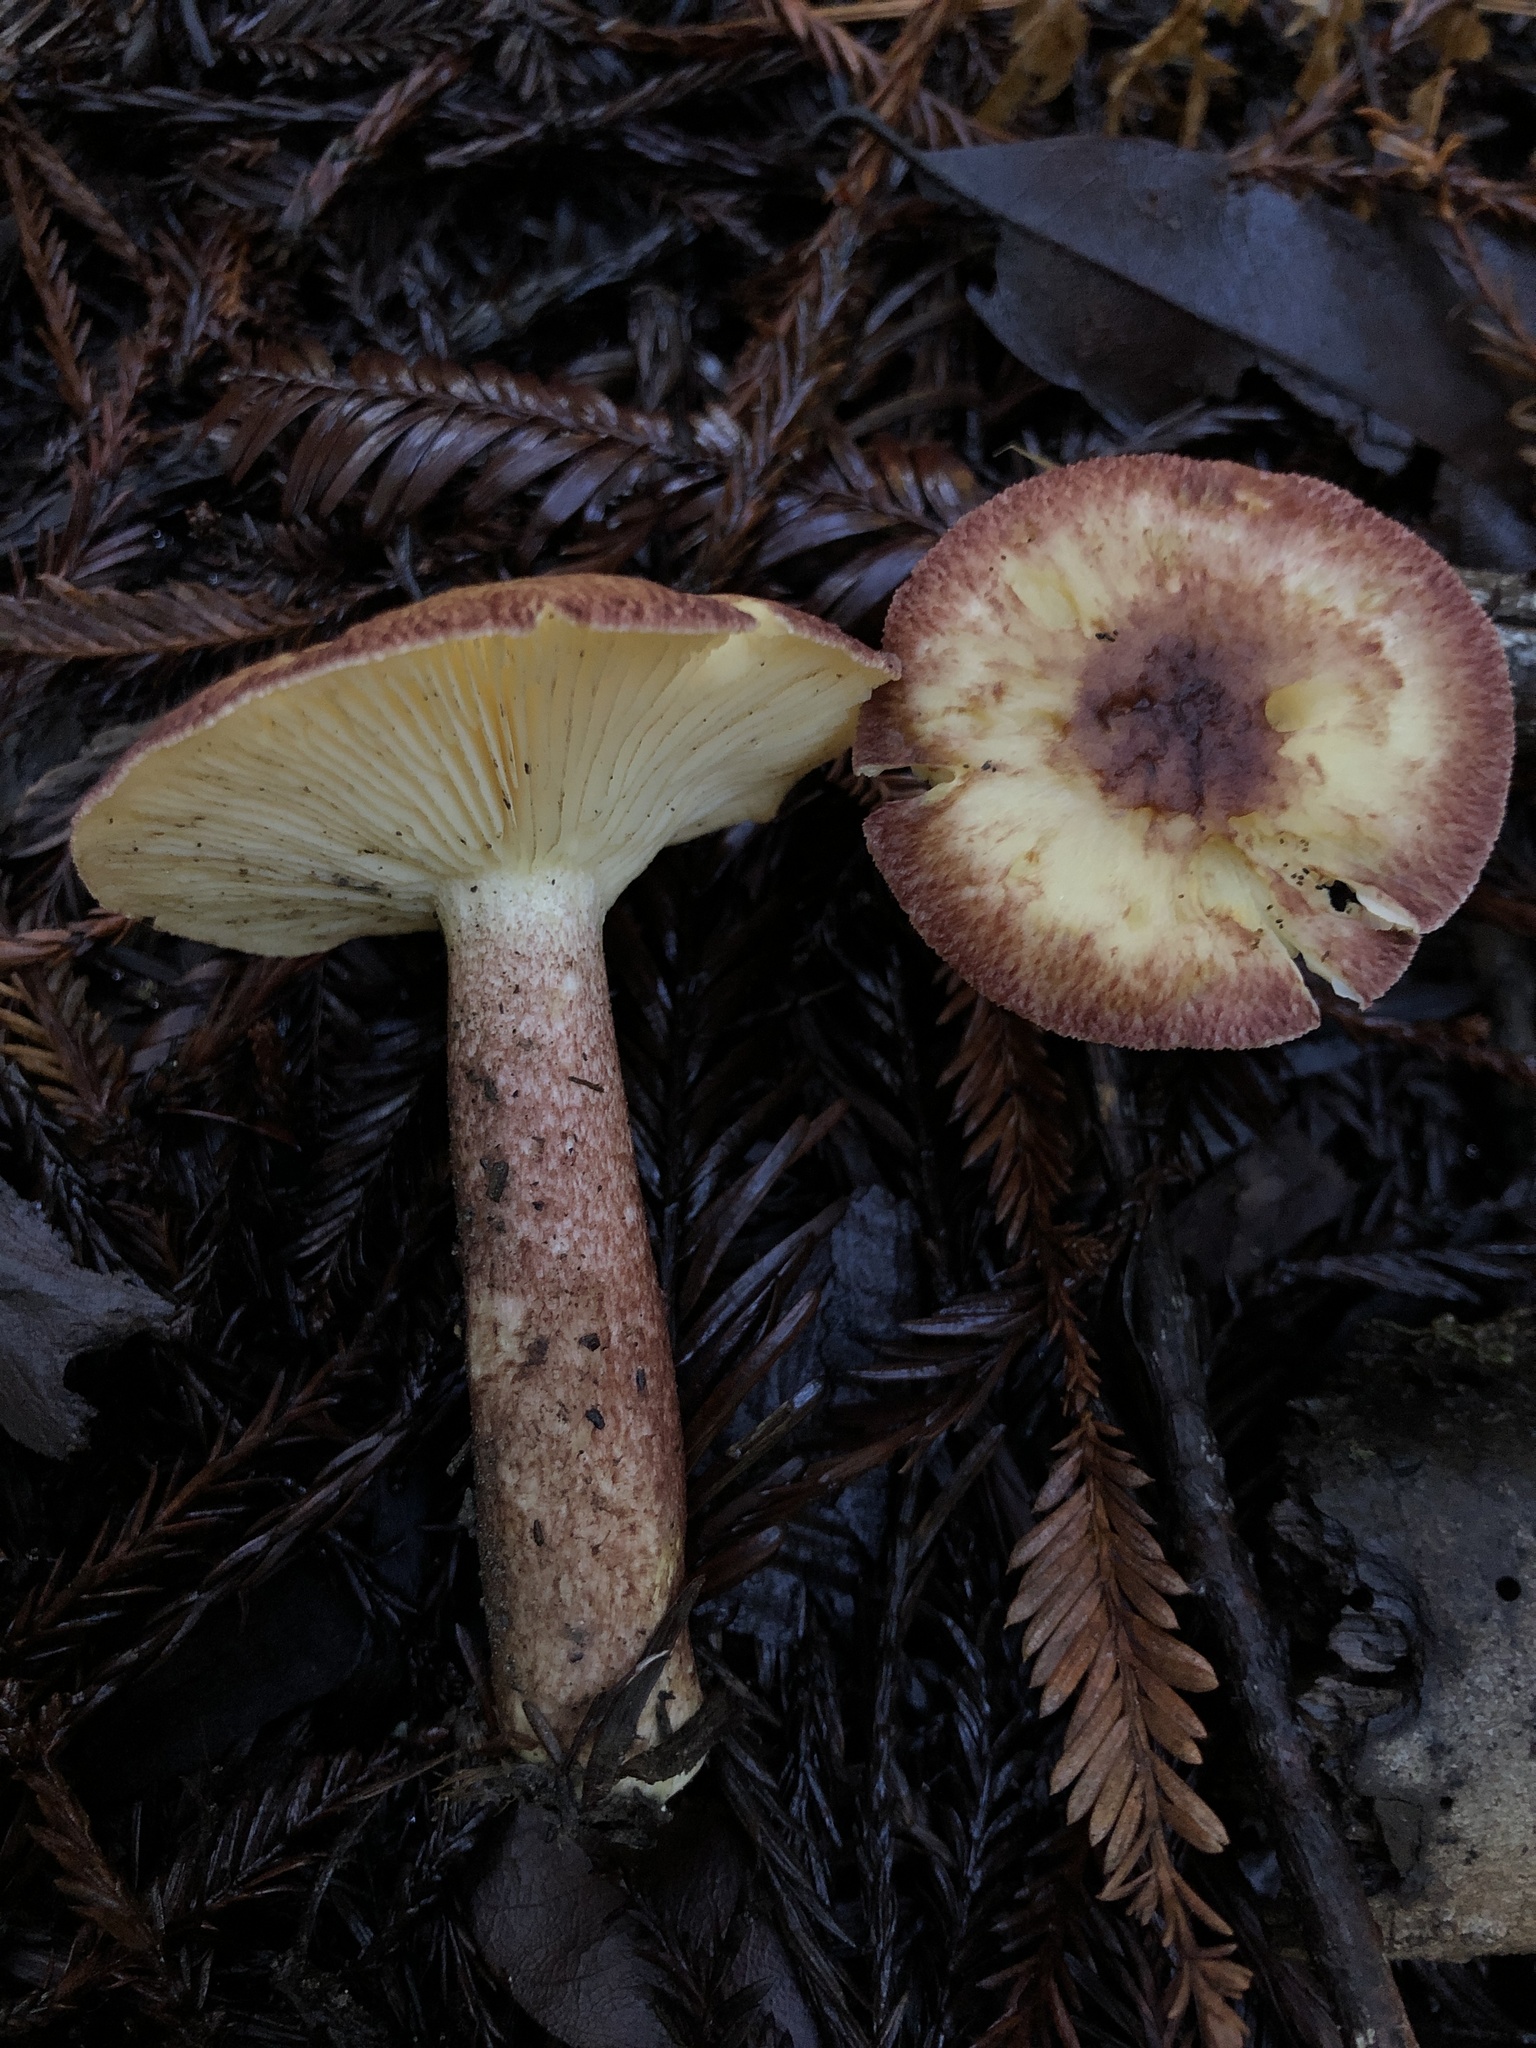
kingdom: Fungi
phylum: Basidiomycota
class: Agaricomycetes
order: Agaricales
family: Tricholomataceae
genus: Tricholomopsis
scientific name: Tricholomopsis rutilans
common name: Plums and custard
